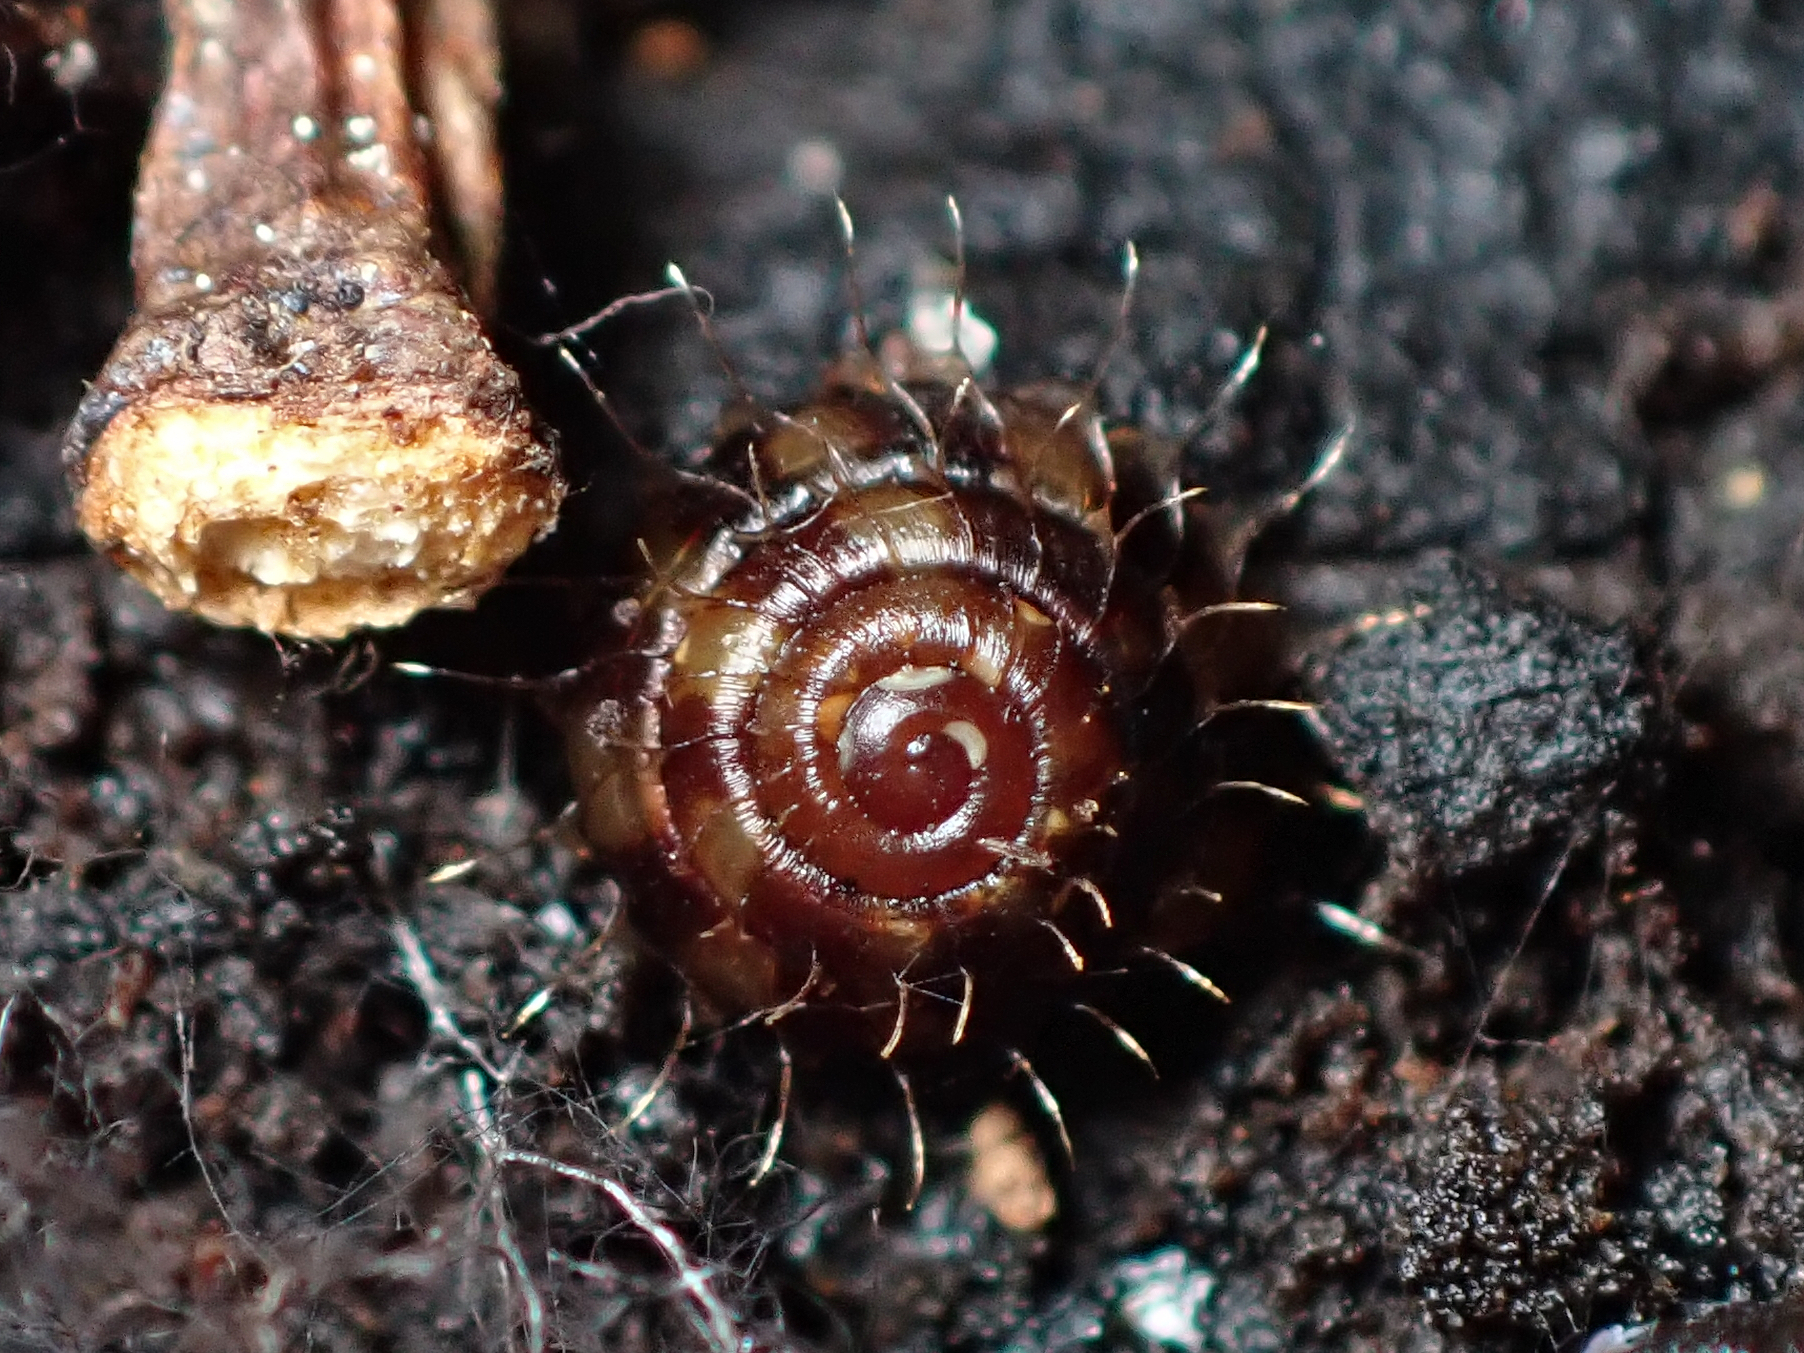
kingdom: Animalia
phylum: Mollusca
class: Gastropoda
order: Stylommatophora
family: Charopidae
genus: Aeschrodomus
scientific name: Aeschrodomus stipulata
